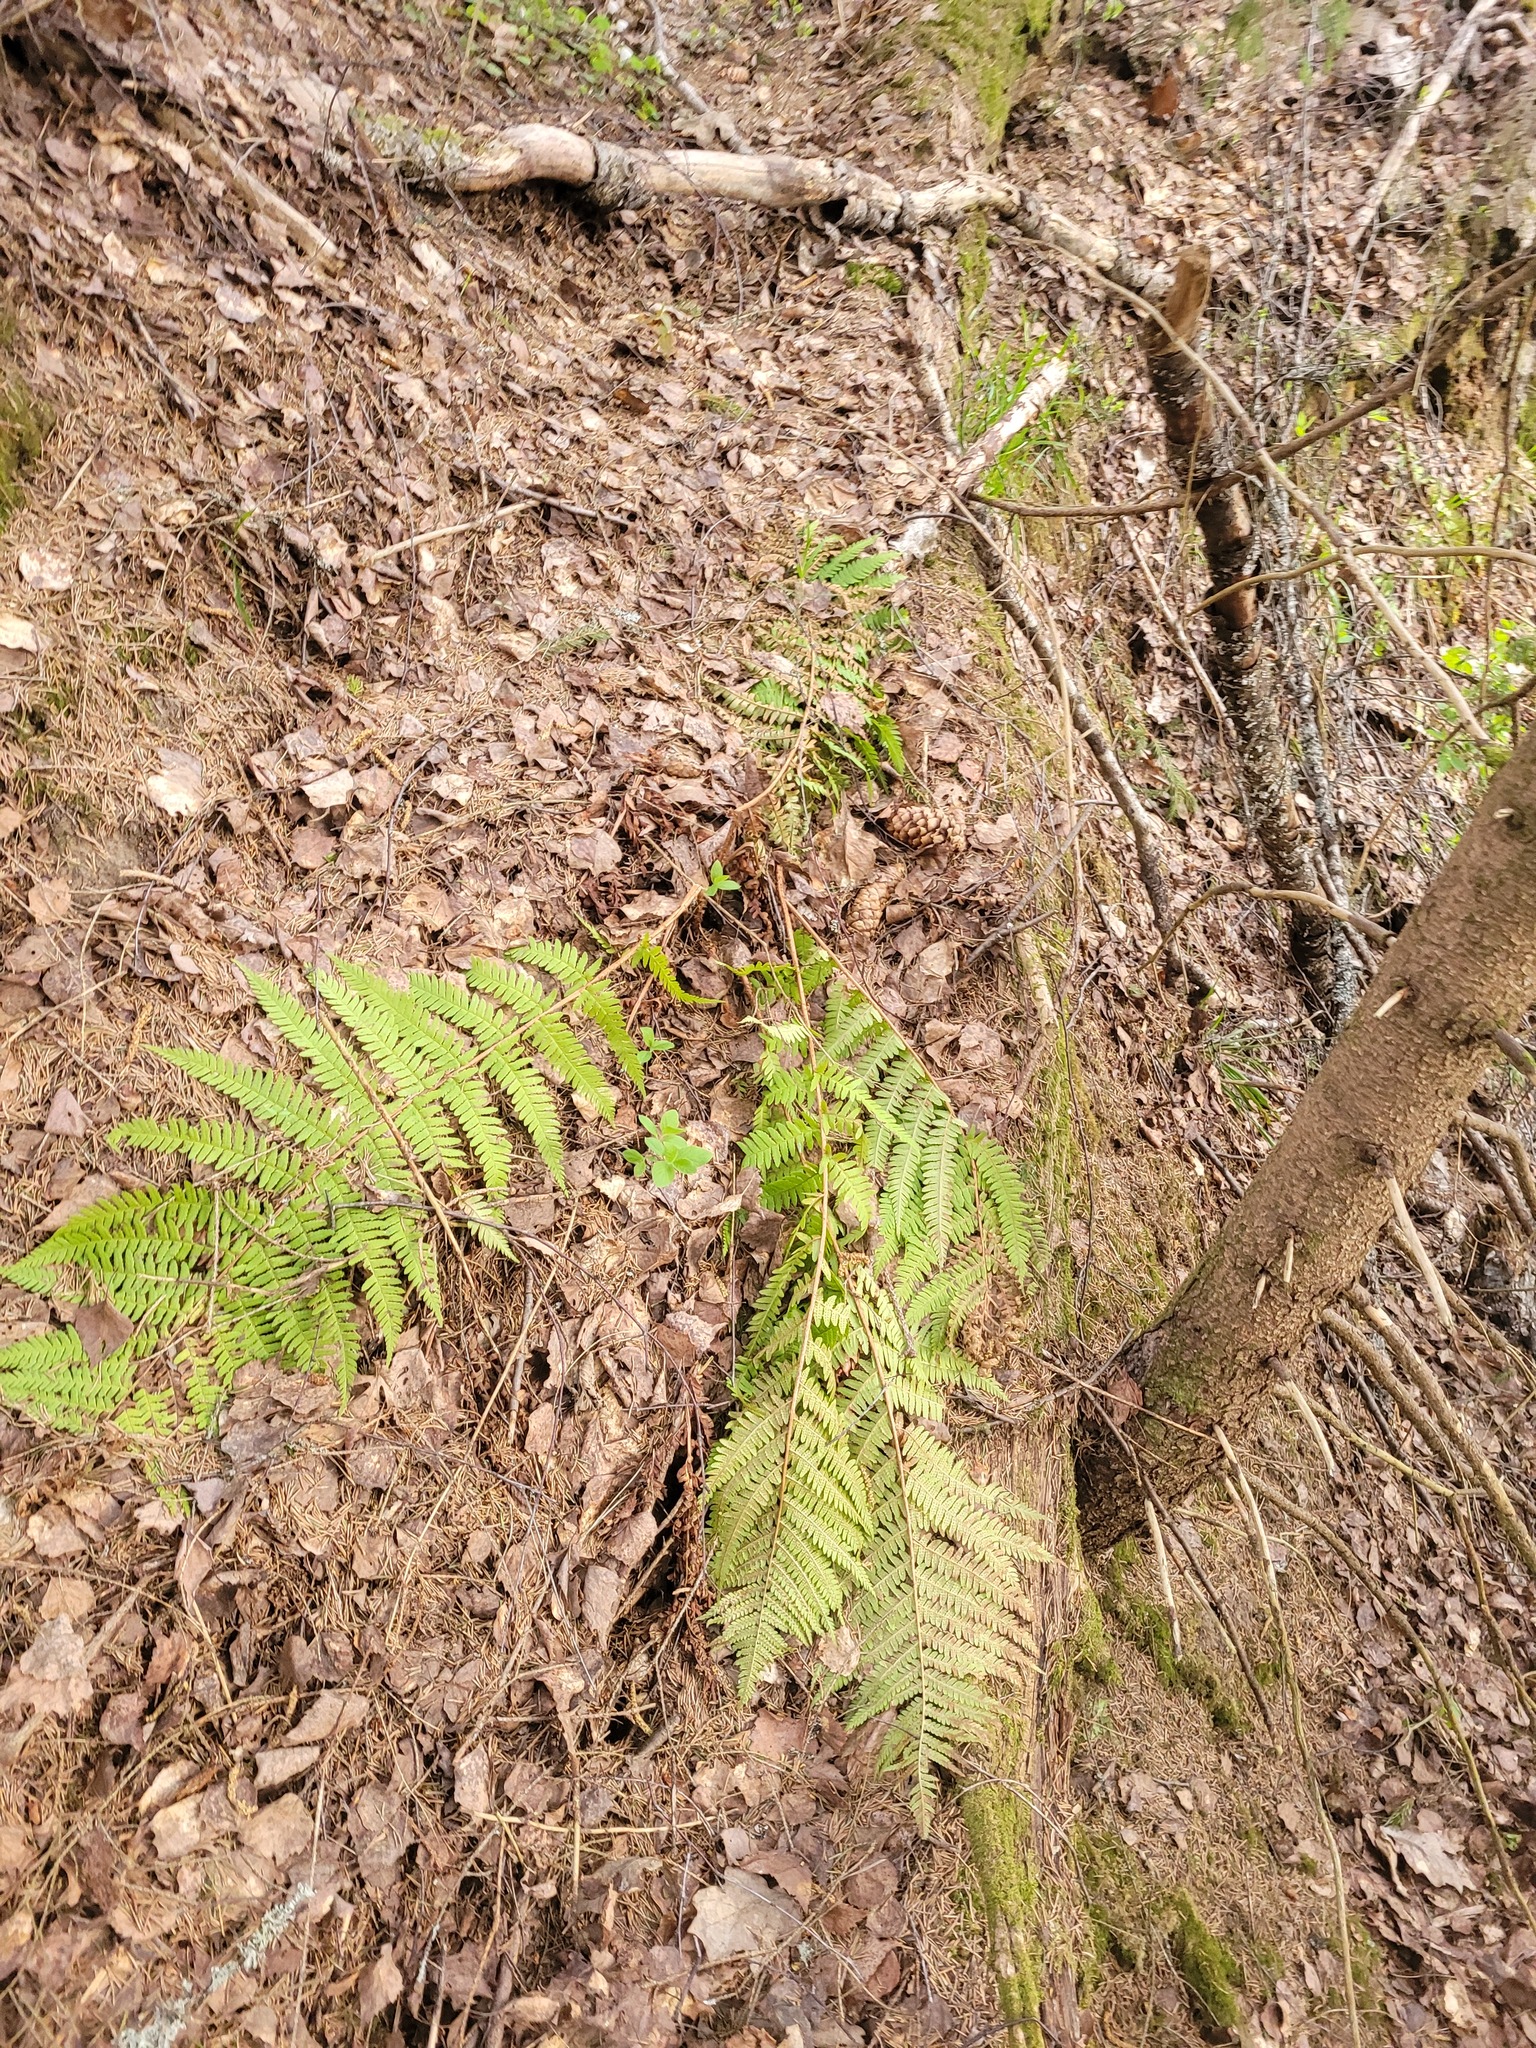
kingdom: Plantae
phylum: Tracheophyta
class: Polypodiopsida
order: Polypodiales
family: Dryopteridaceae
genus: Dryopteris
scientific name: Dryopteris filix-mas
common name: Male fern
